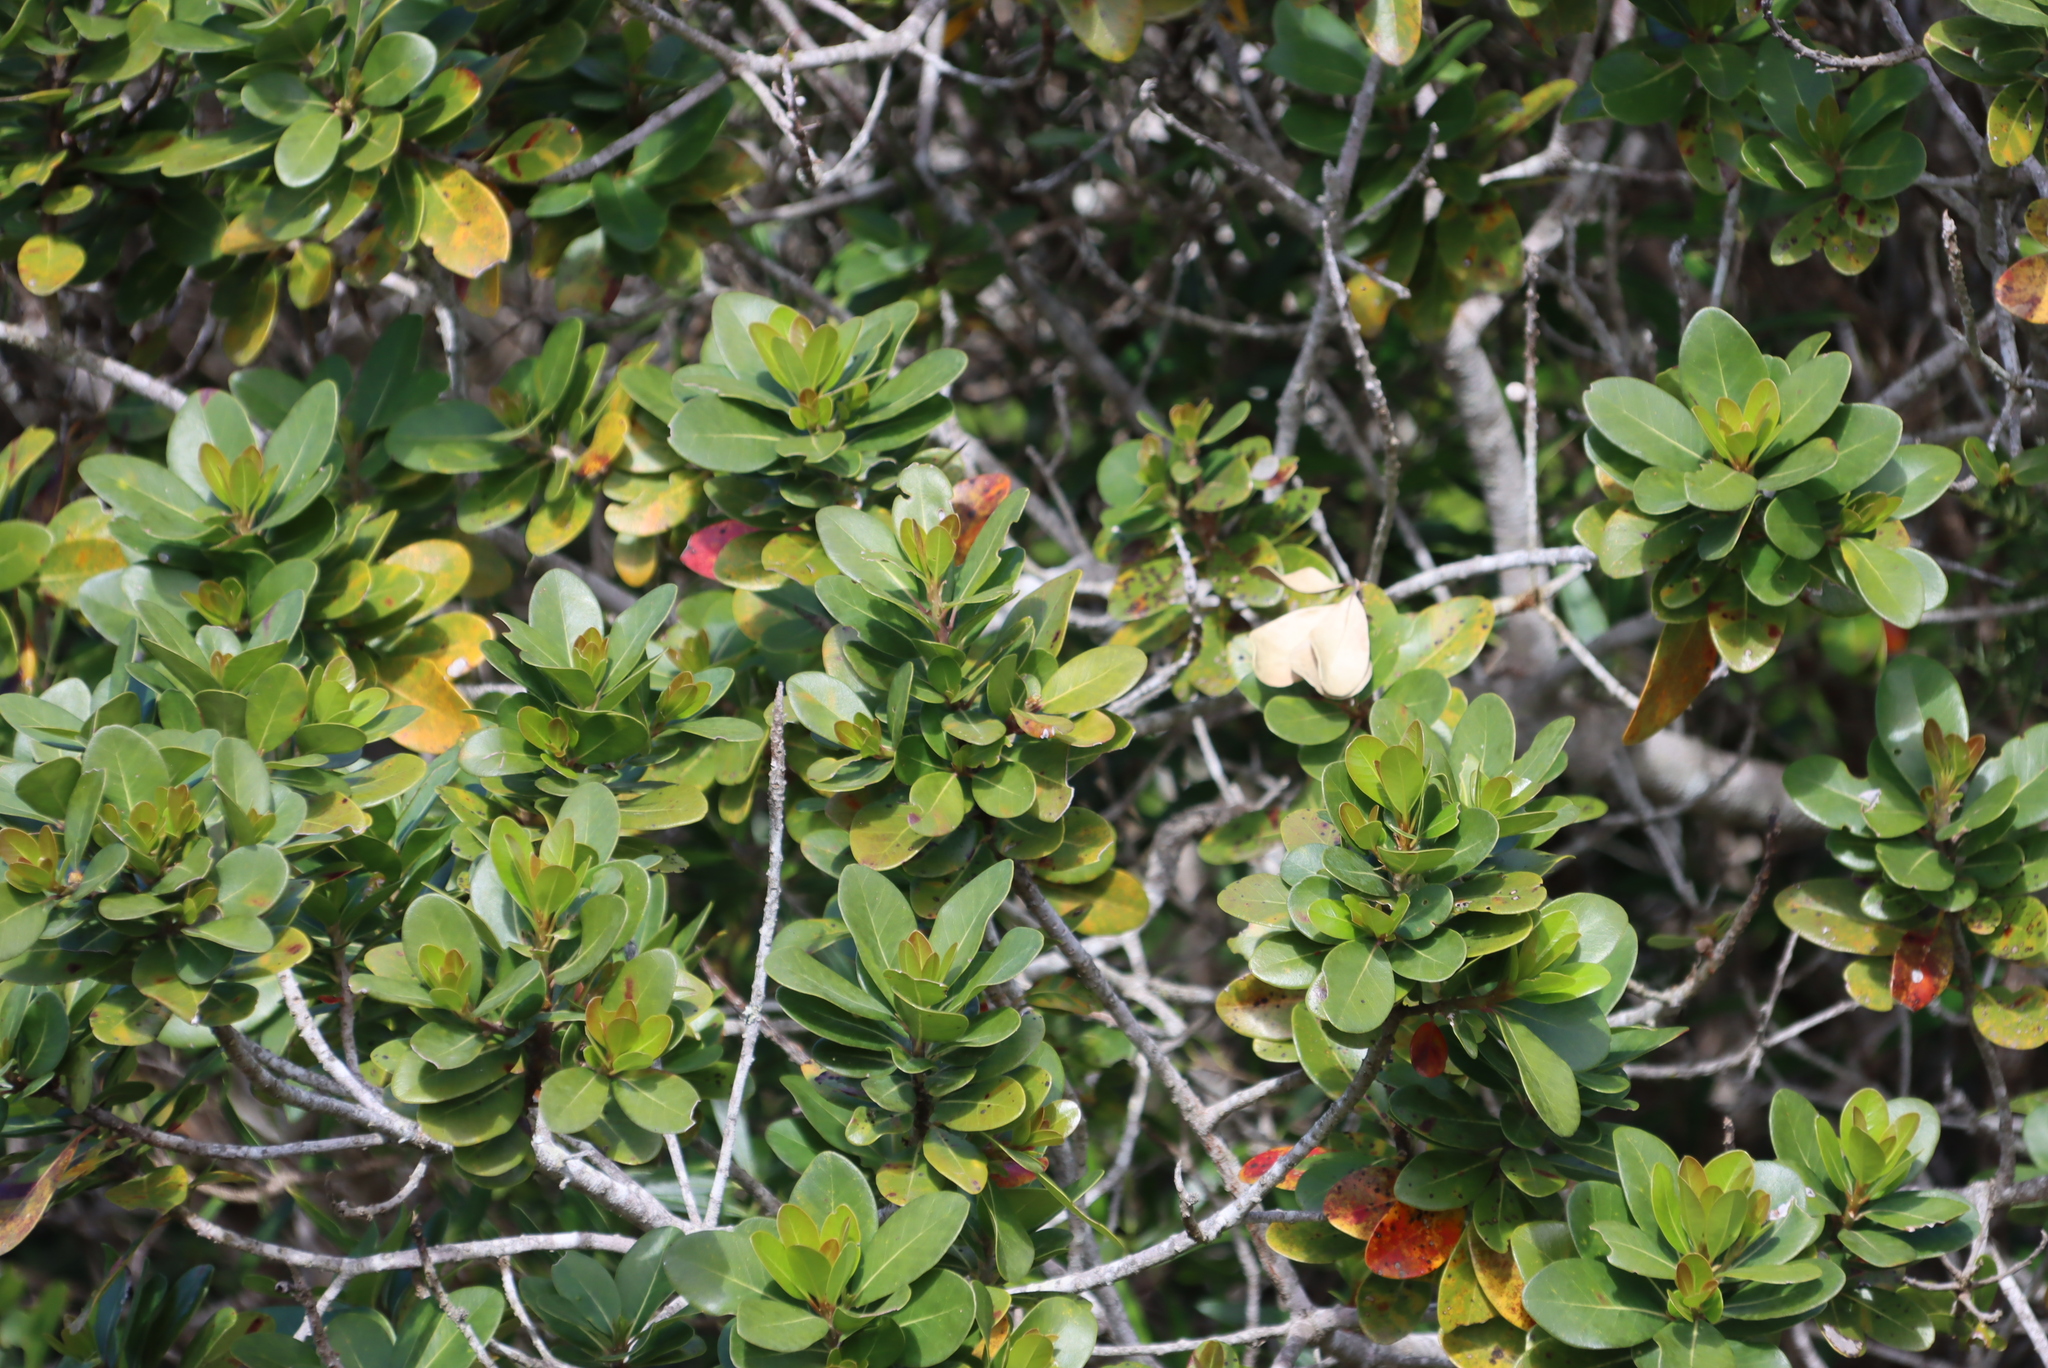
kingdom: Plantae
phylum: Tracheophyta
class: Magnoliopsida
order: Ericales
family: Sapotaceae
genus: Sideroxylon
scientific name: Sideroxylon inerme
